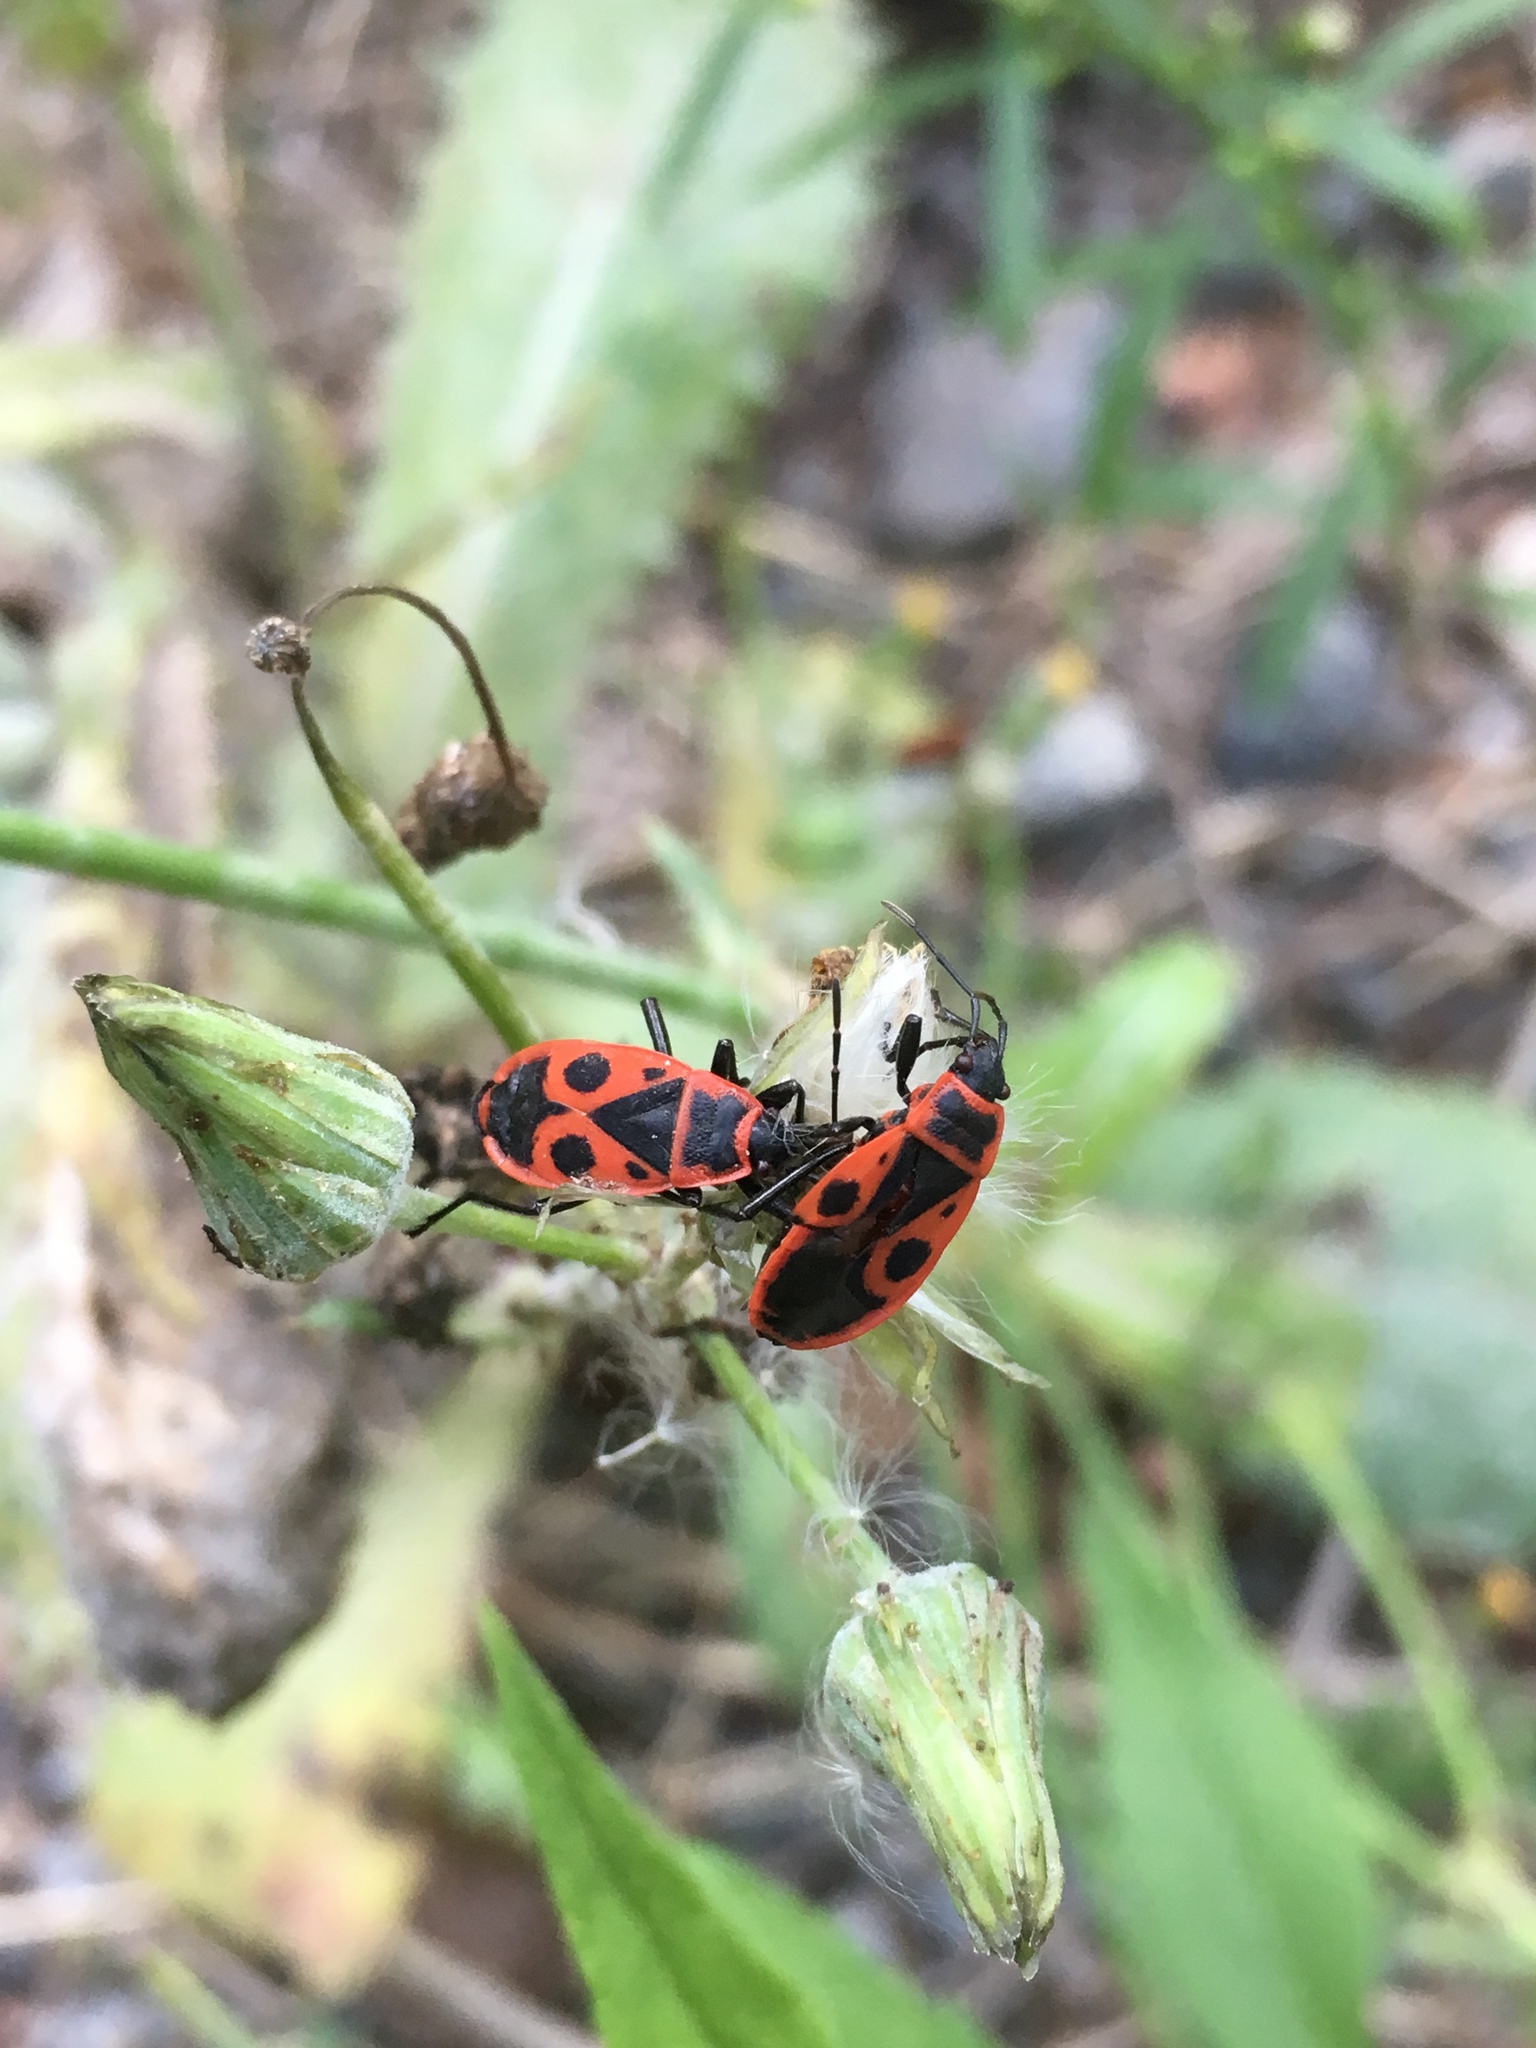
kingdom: Animalia
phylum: Arthropoda
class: Insecta
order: Hemiptera
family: Pyrrhocoridae
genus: Pyrrhocoris
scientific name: Pyrrhocoris apterus
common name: Firebug
